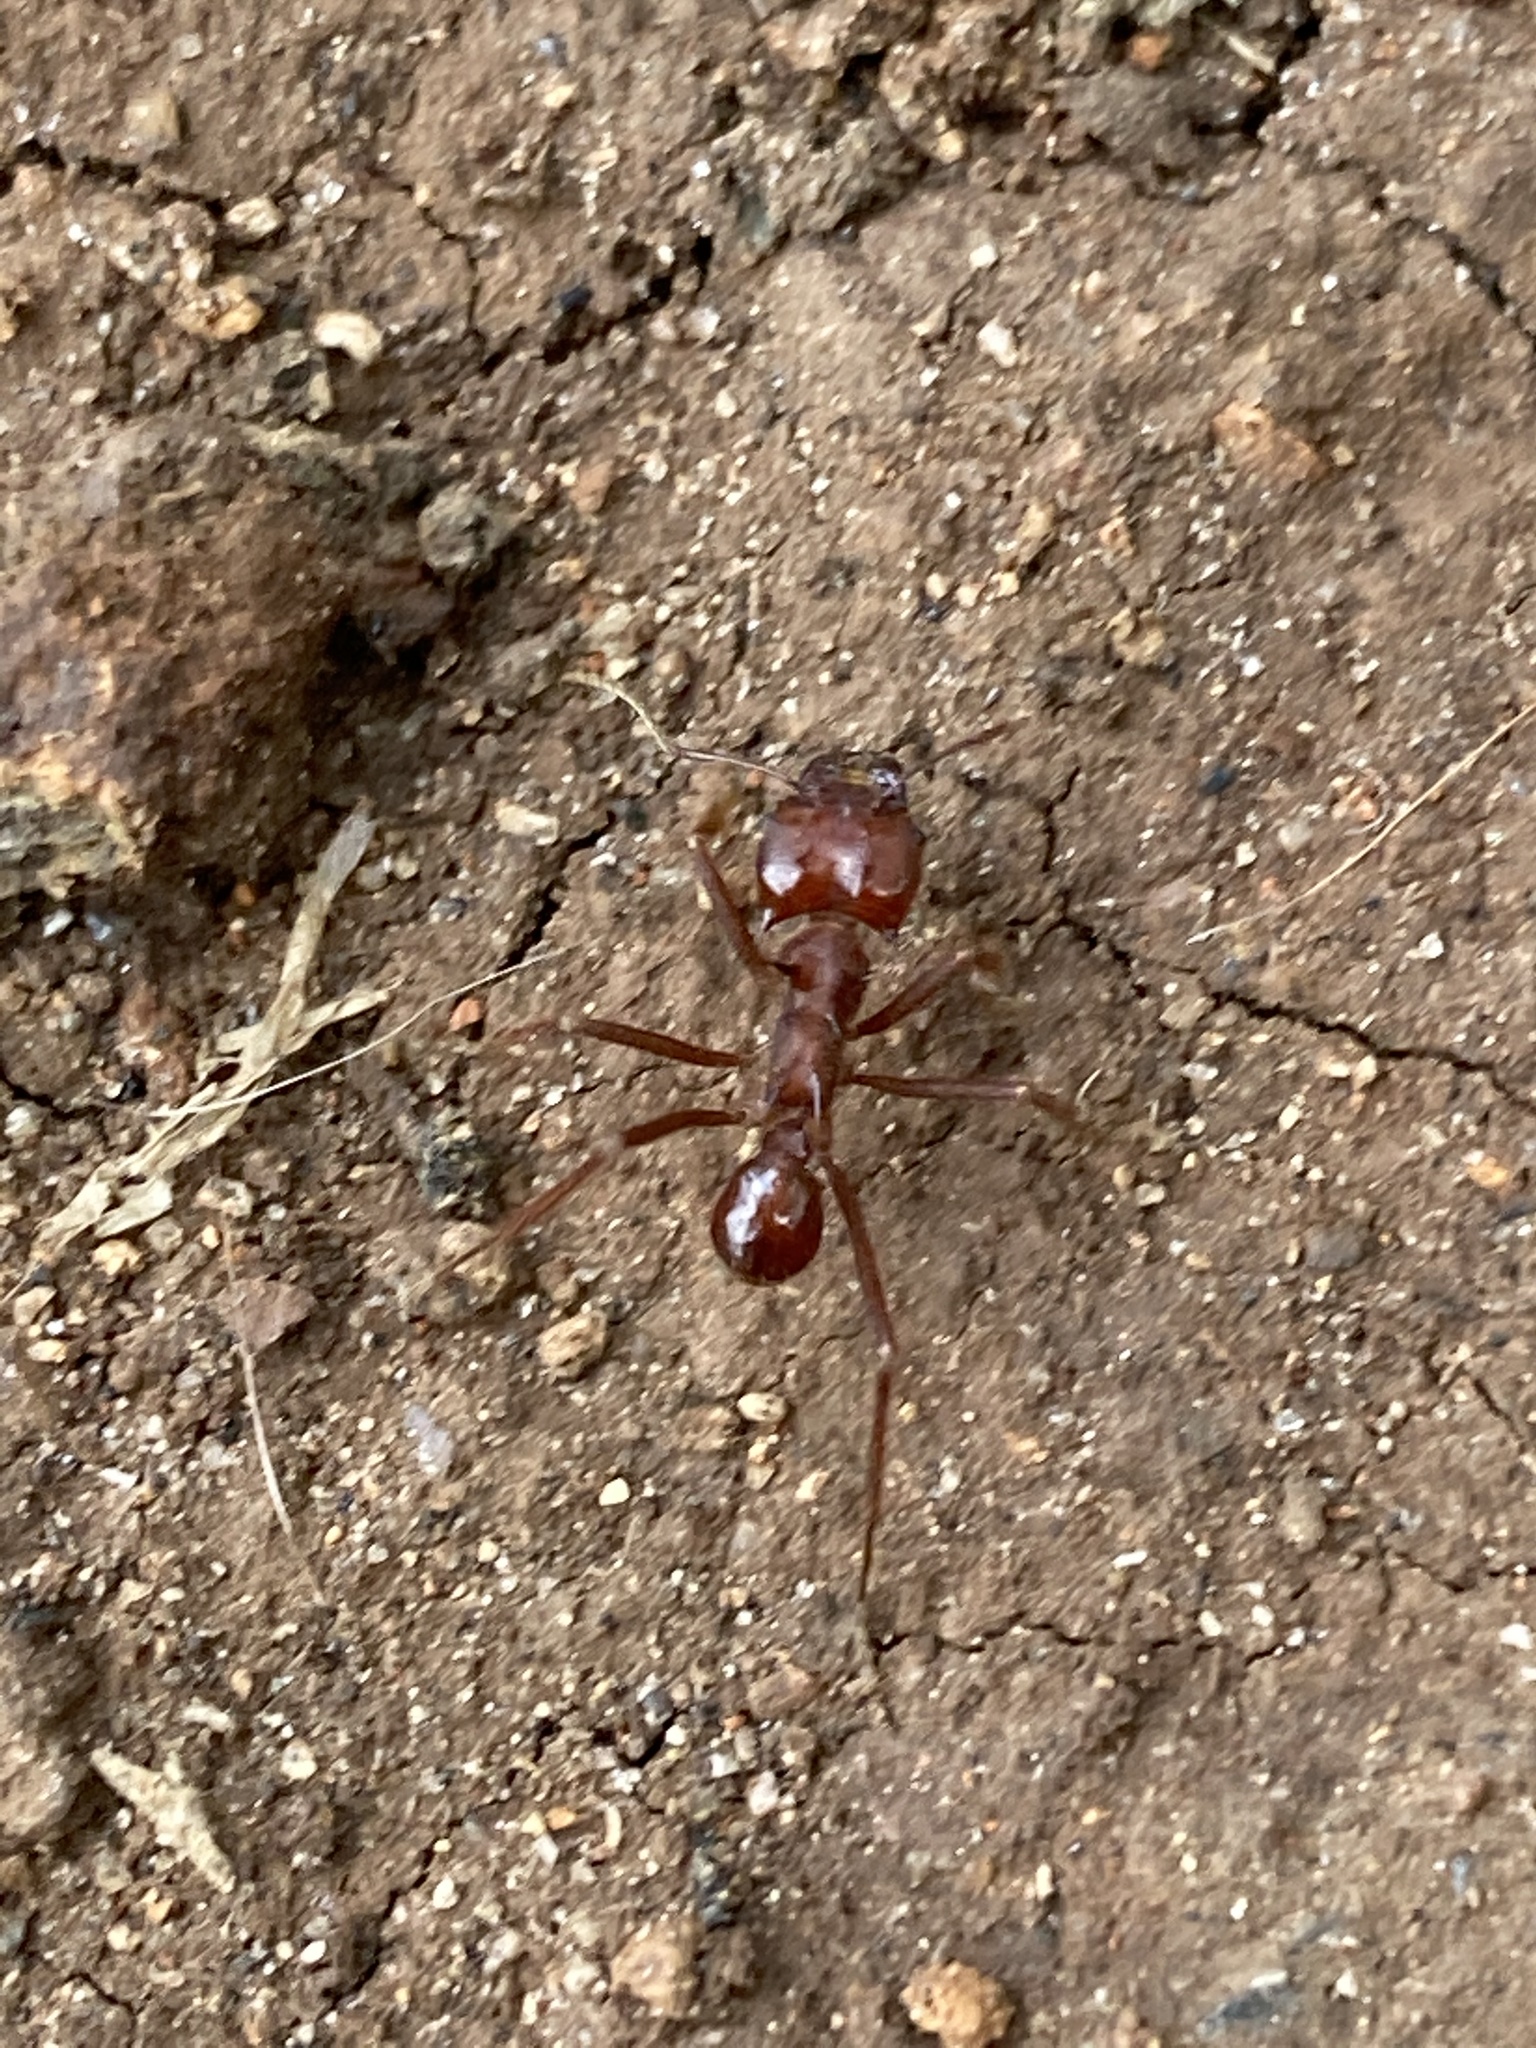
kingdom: Animalia
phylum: Arthropoda
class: Insecta
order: Hymenoptera
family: Formicidae
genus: Atta
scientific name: Atta mexicana
